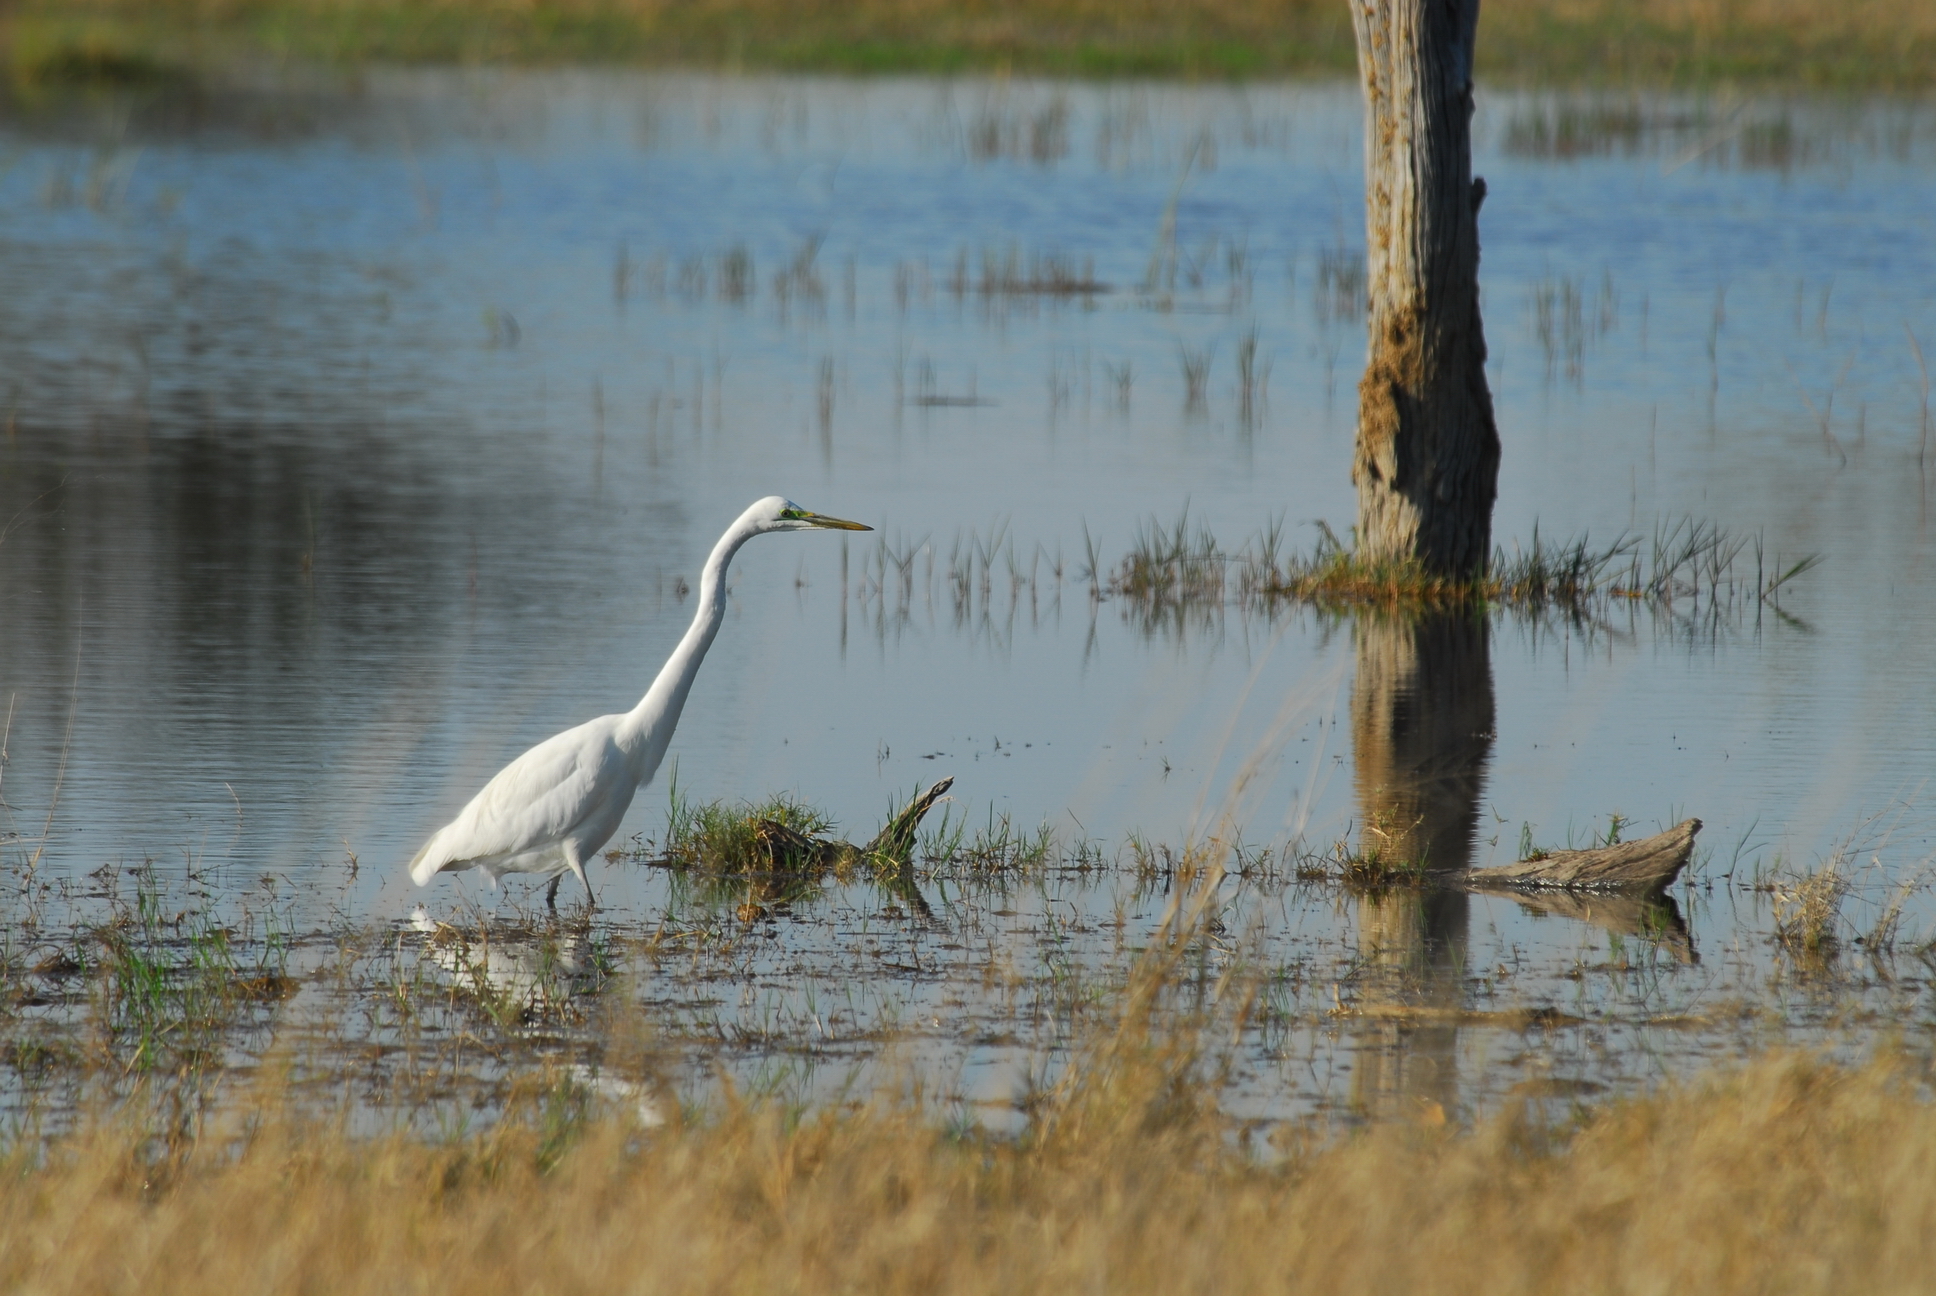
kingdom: Animalia
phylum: Chordata
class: Aves
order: Pelecaniformes
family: Ardeidae
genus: Ardea
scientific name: Ardea alba
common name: Great egret
